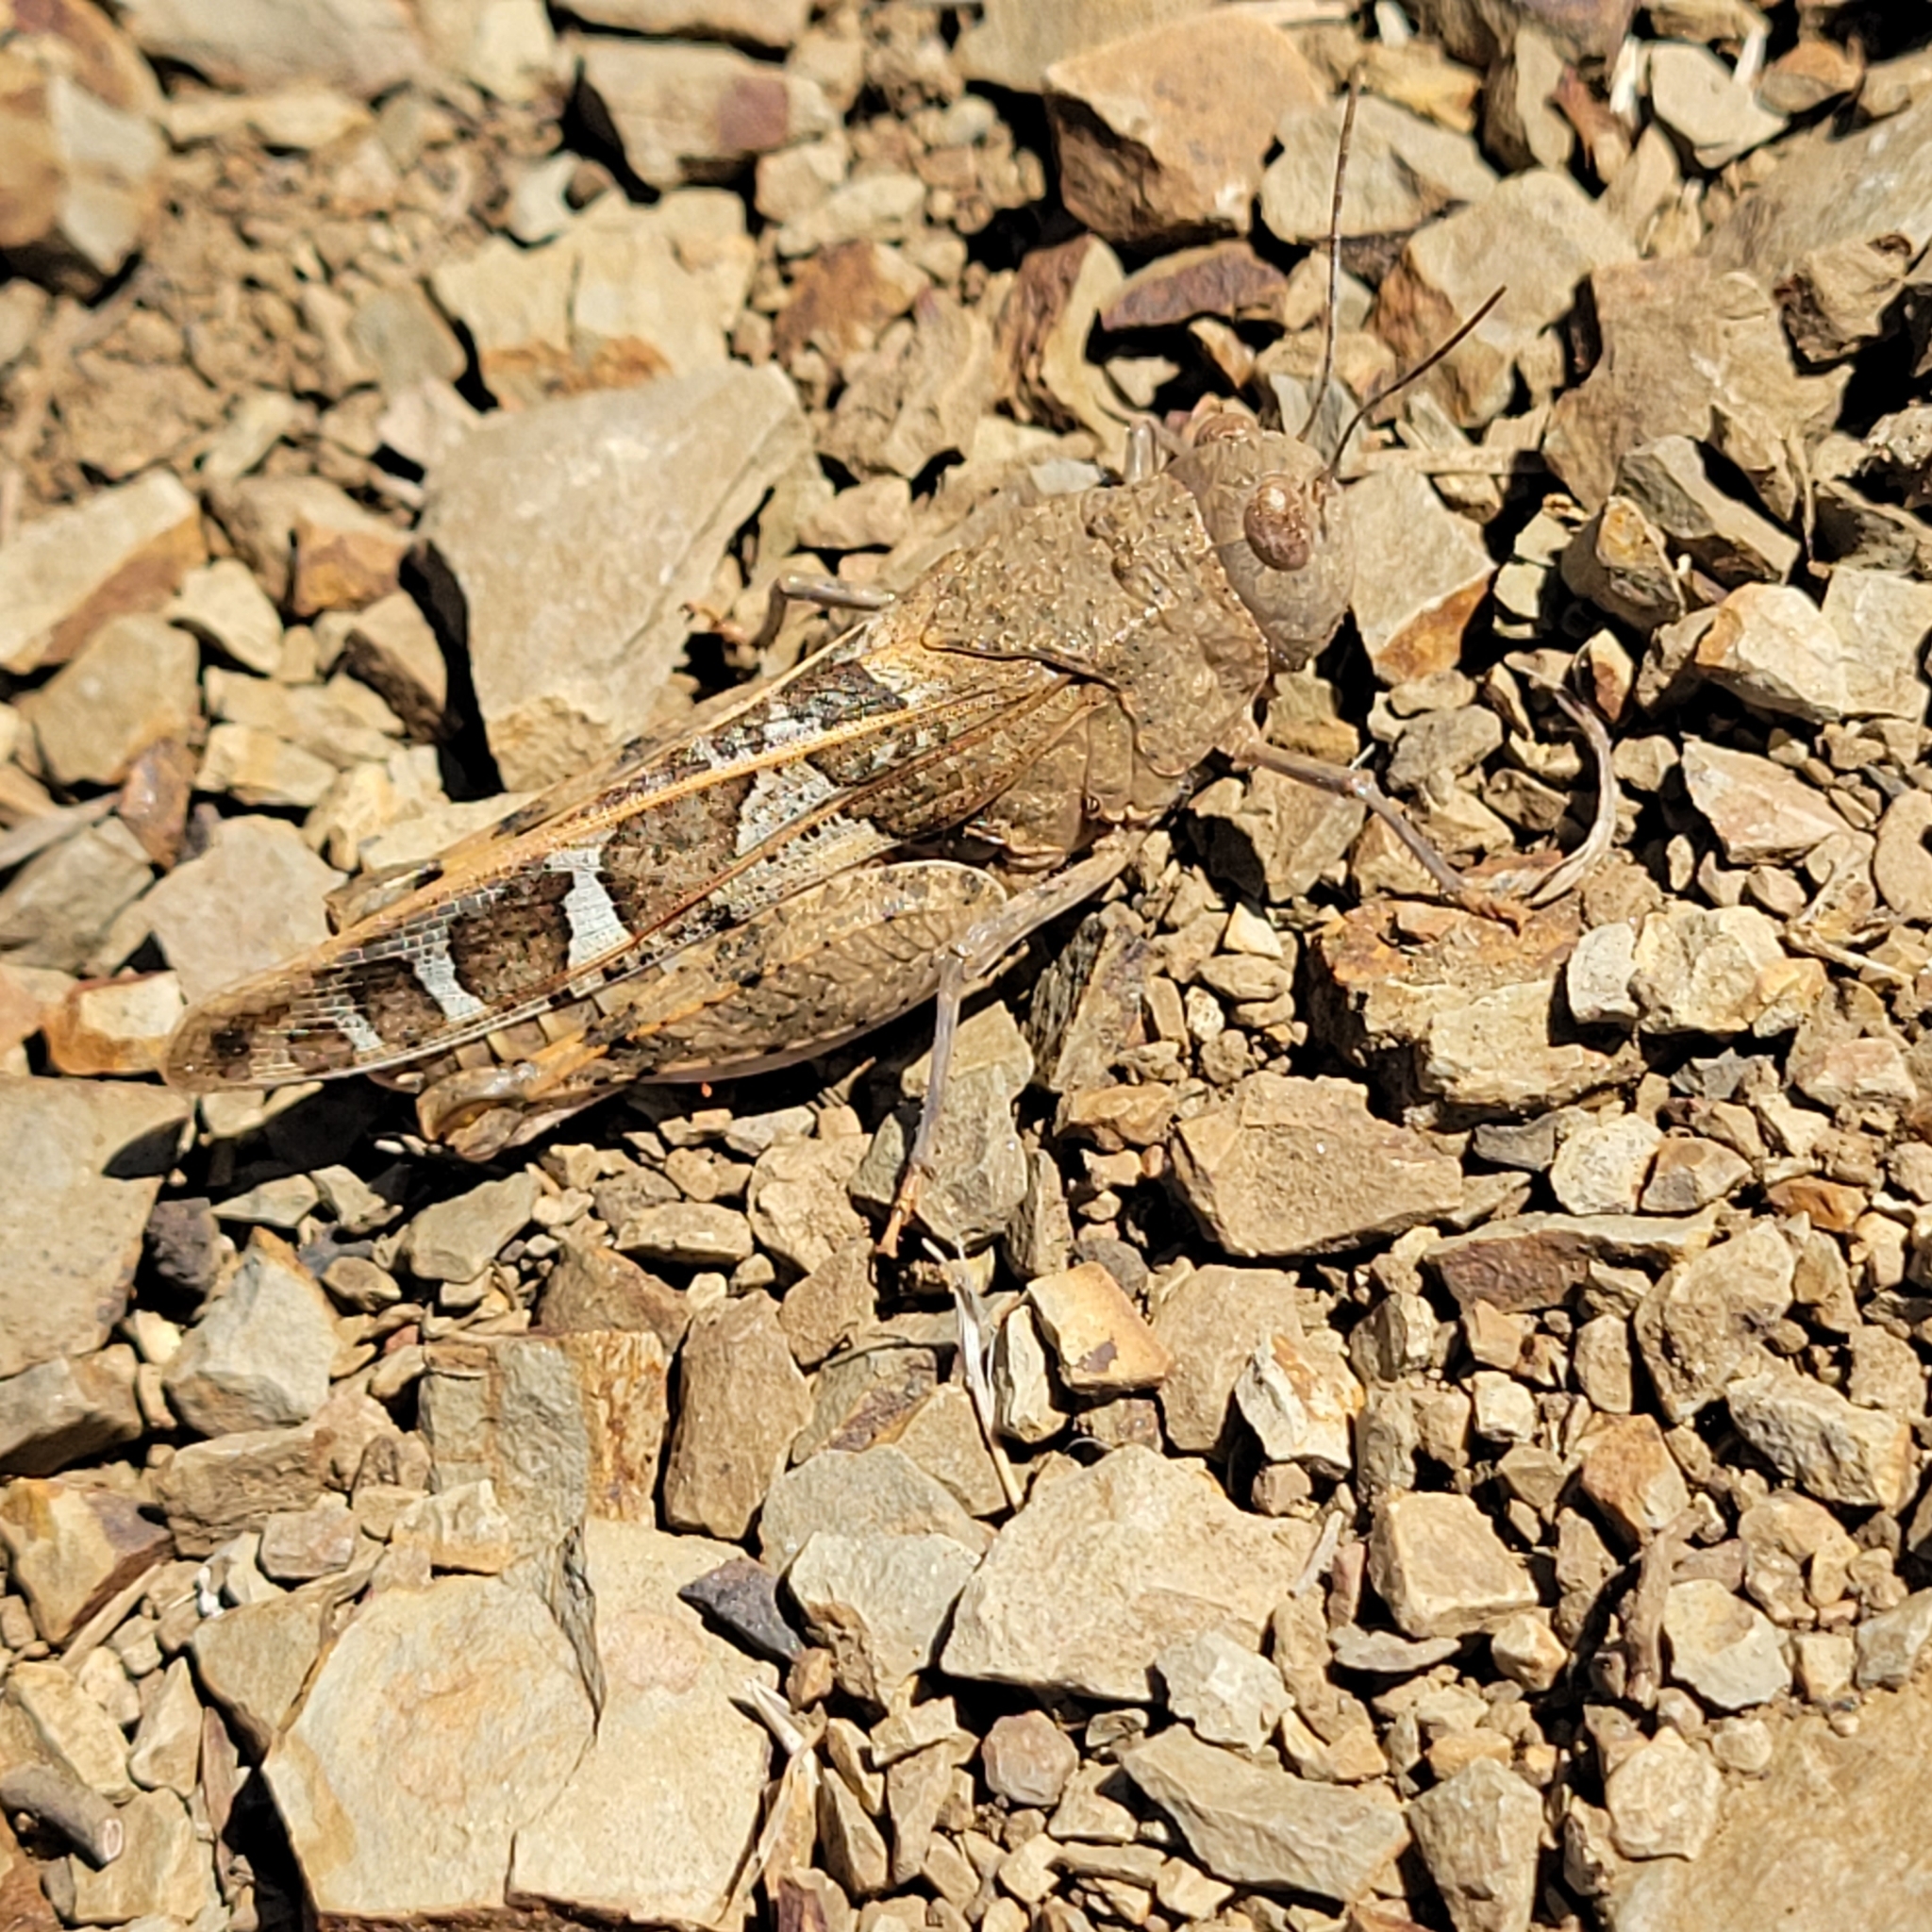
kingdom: Animalia
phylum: Arthropoda
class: Insecta
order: Orthoptera
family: Acrididae
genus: Leprus
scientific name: Leprus intermedius
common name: Saussure's blue-winged grasshopper
